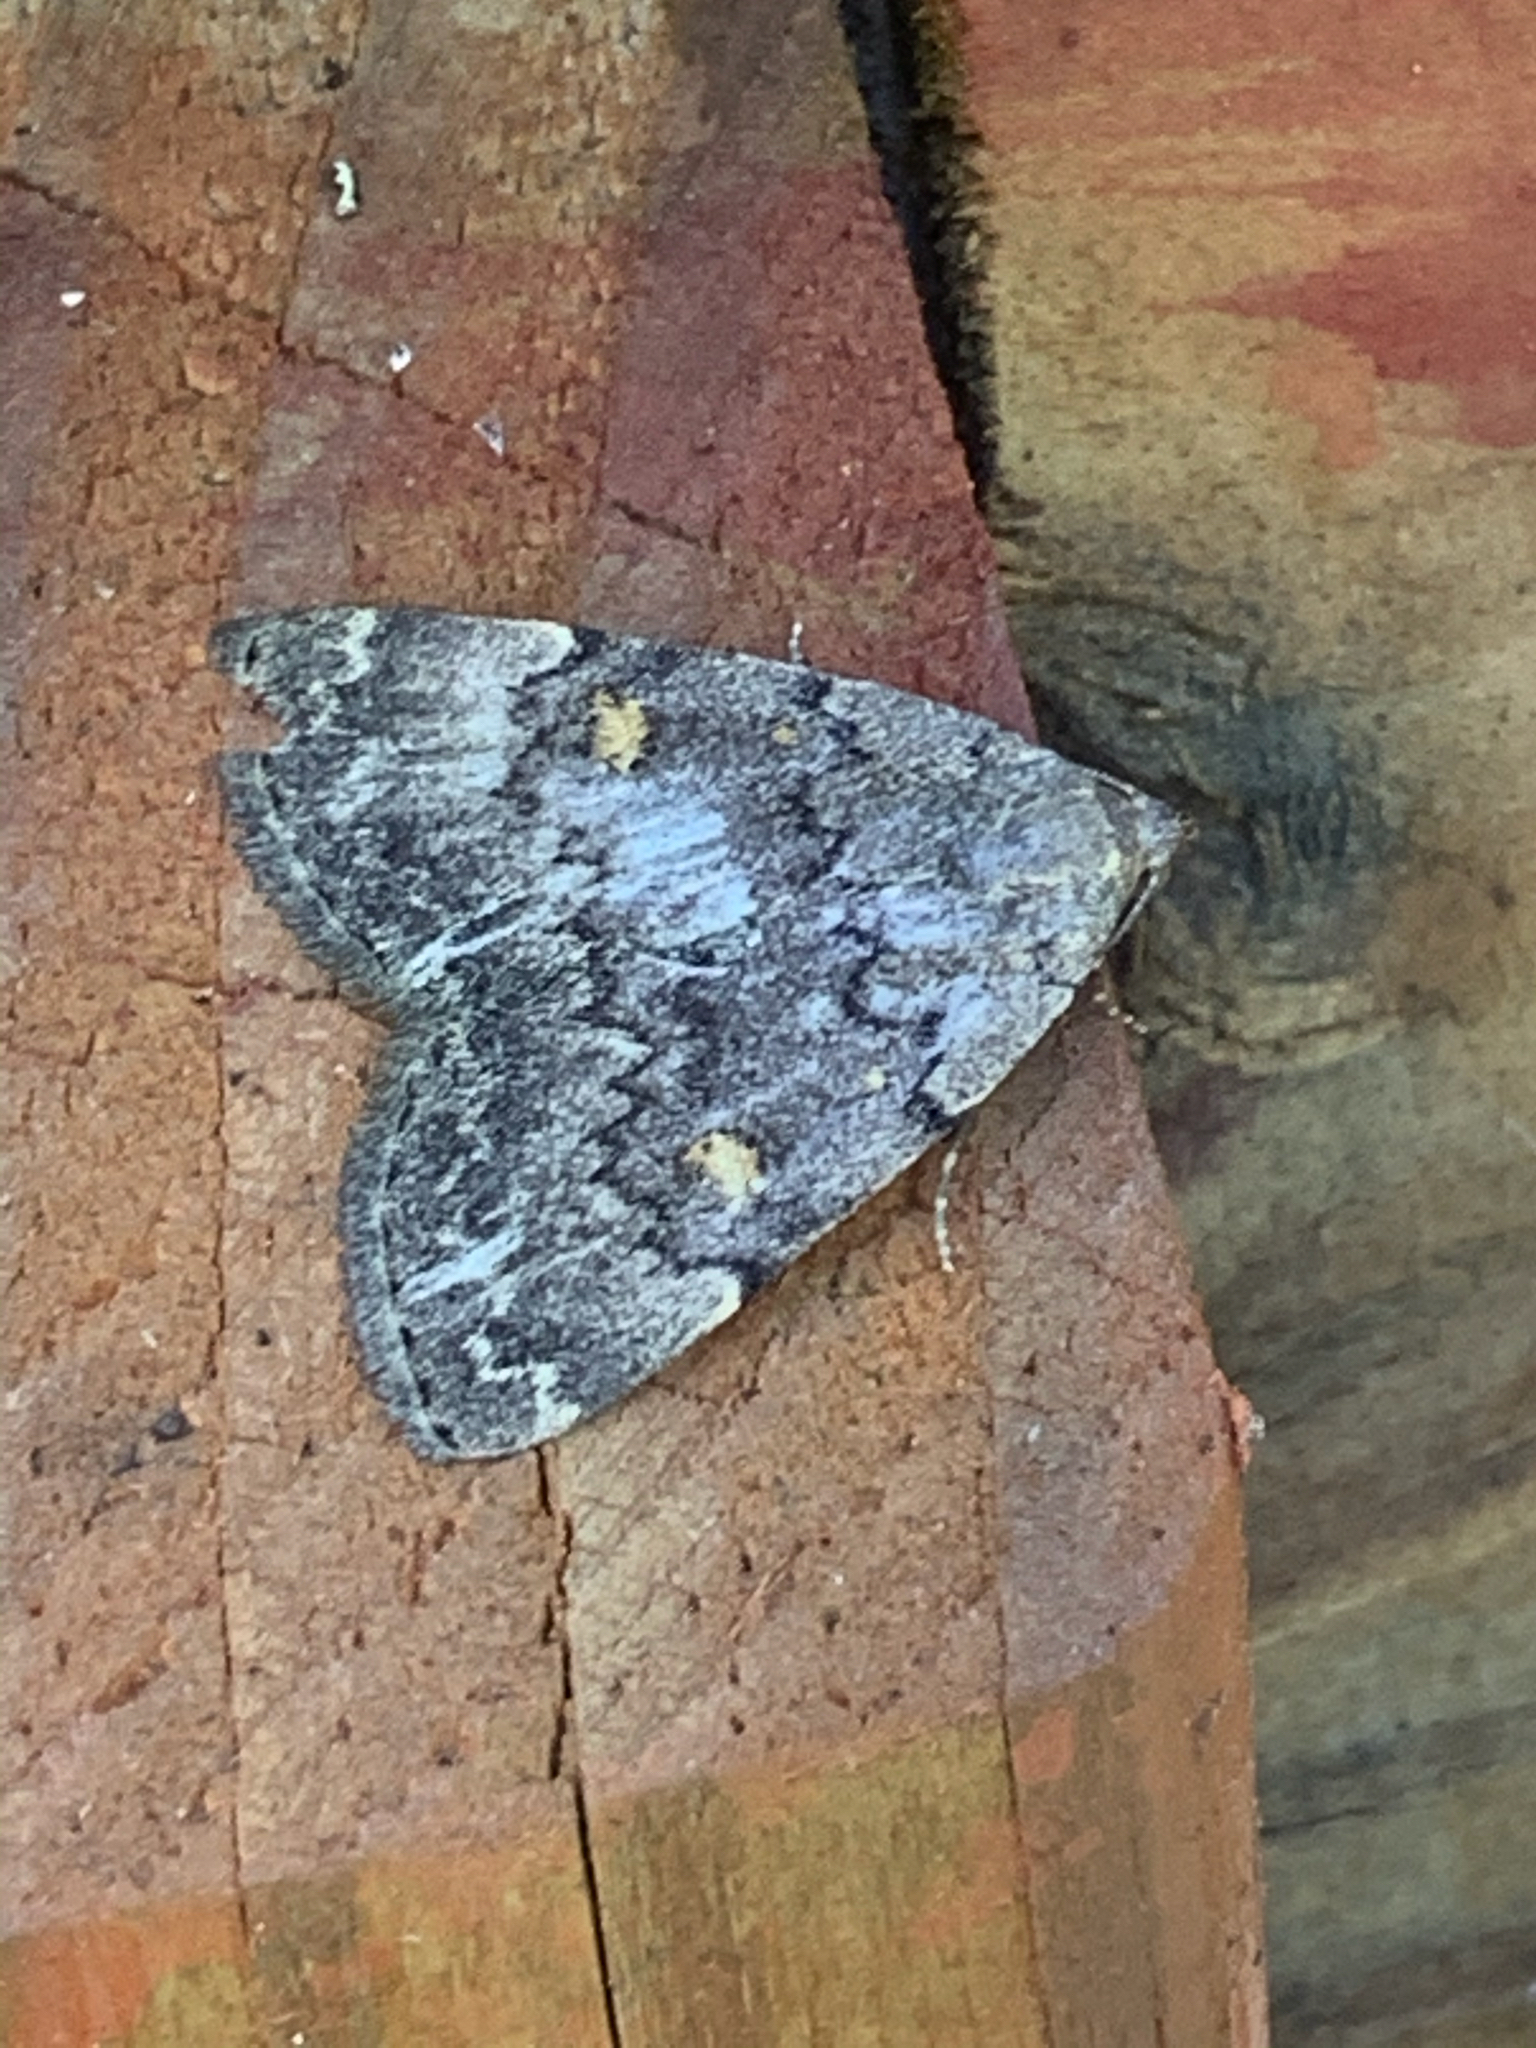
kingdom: Animalia
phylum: Arthropoda
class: Insecta
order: Lepidoptera
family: Erebidae
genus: Idia
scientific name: Idia aemula
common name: Common idia moth
